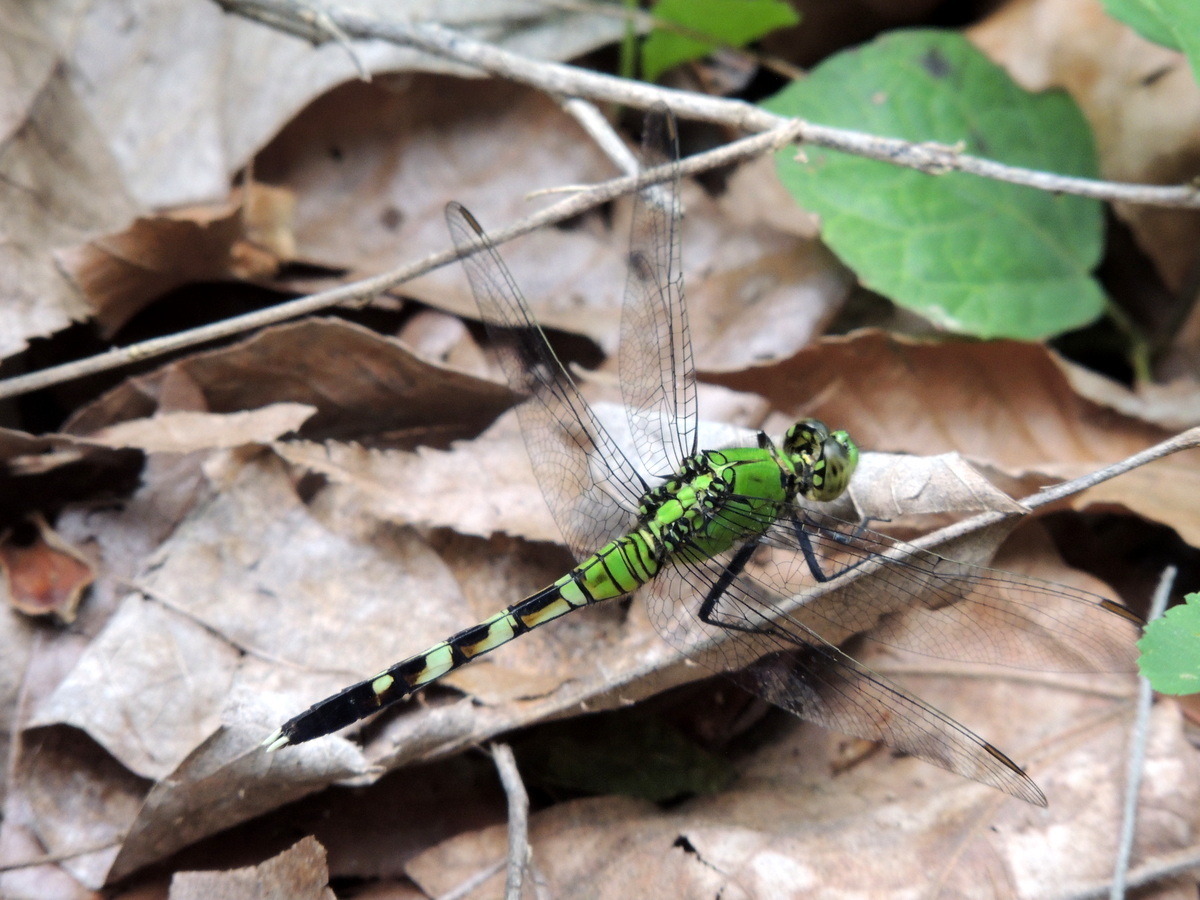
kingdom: Animalia
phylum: Arthropoda
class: Insecta
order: Odonata
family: Libellulidae
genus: Erythemis
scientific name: Erythemis simplicicollis
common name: Eastern pondhawk
